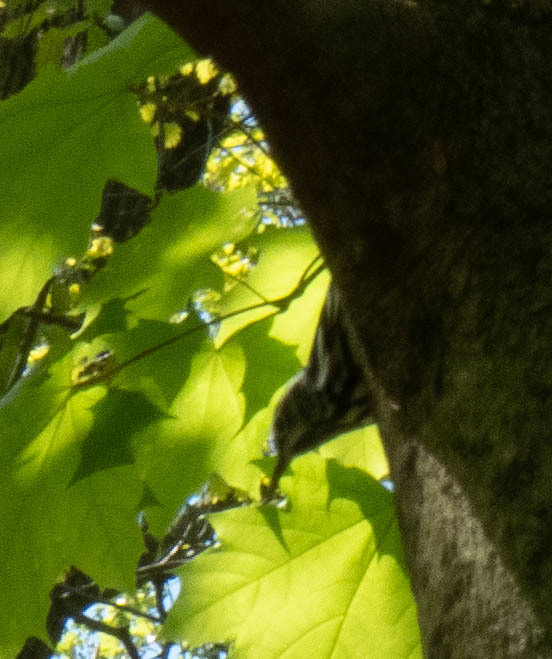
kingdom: Animalia
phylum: Chordata
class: Aves
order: Passeriformes
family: Parulidae
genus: Mniotilta
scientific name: Mniotilta varia
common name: Black-and-white warbler
